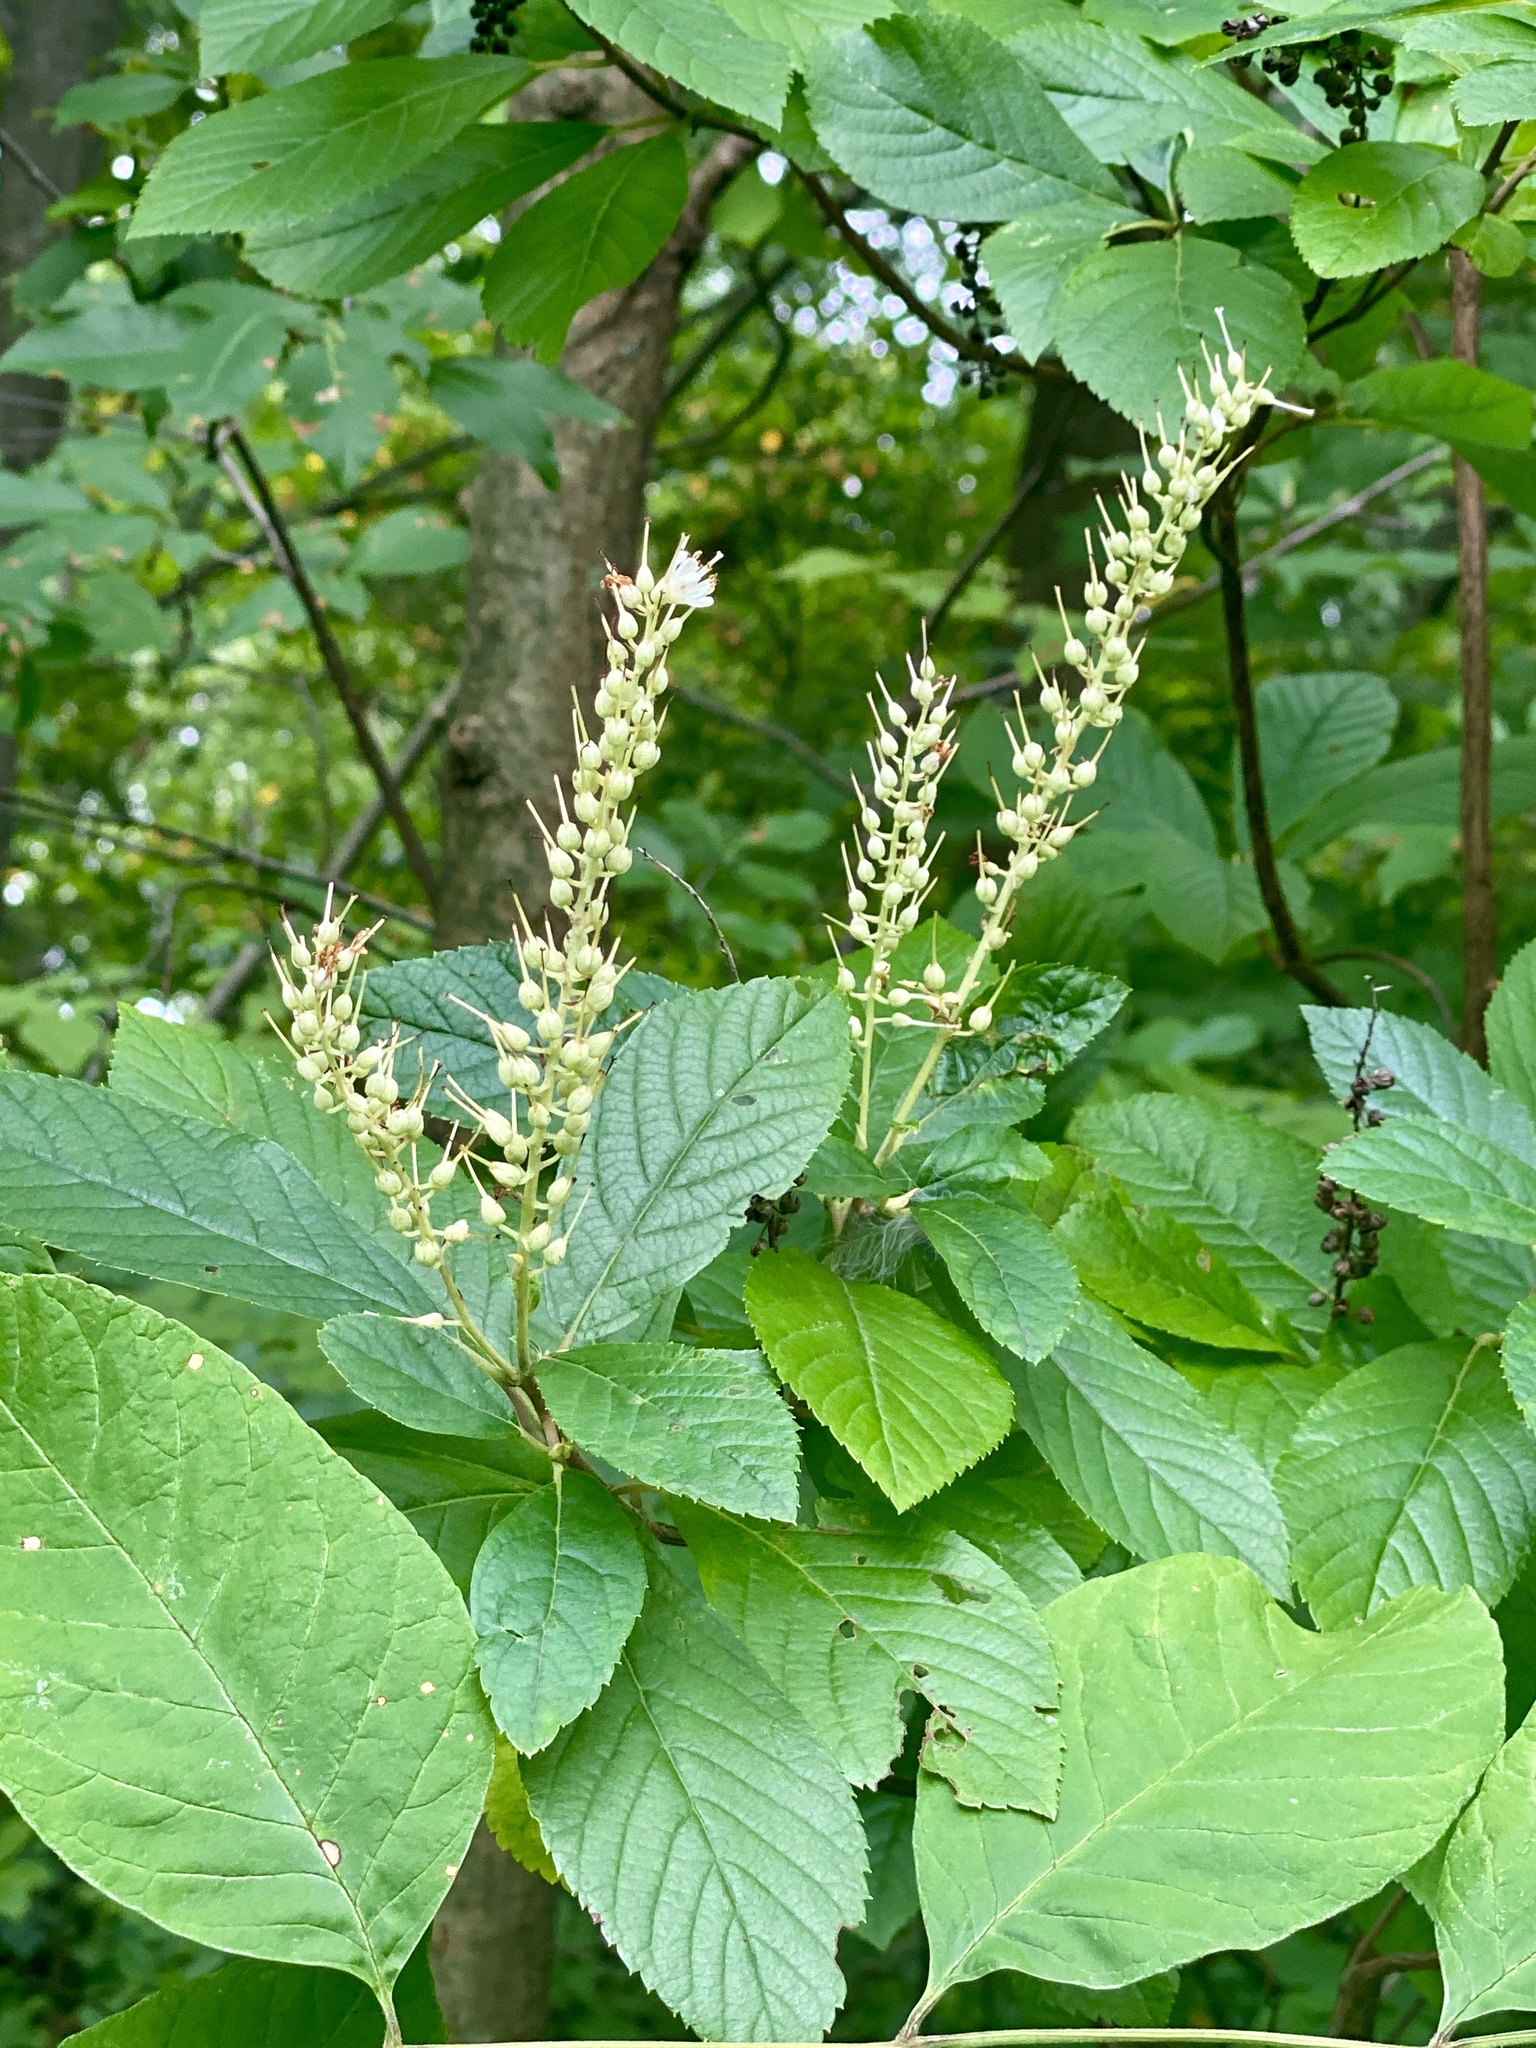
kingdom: Plantae
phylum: Tracheophyta
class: Magnoliopsida
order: Ericales
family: Clethraceae
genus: Clethra
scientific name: Clethra alnifolia
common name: Sweet pepperbush
